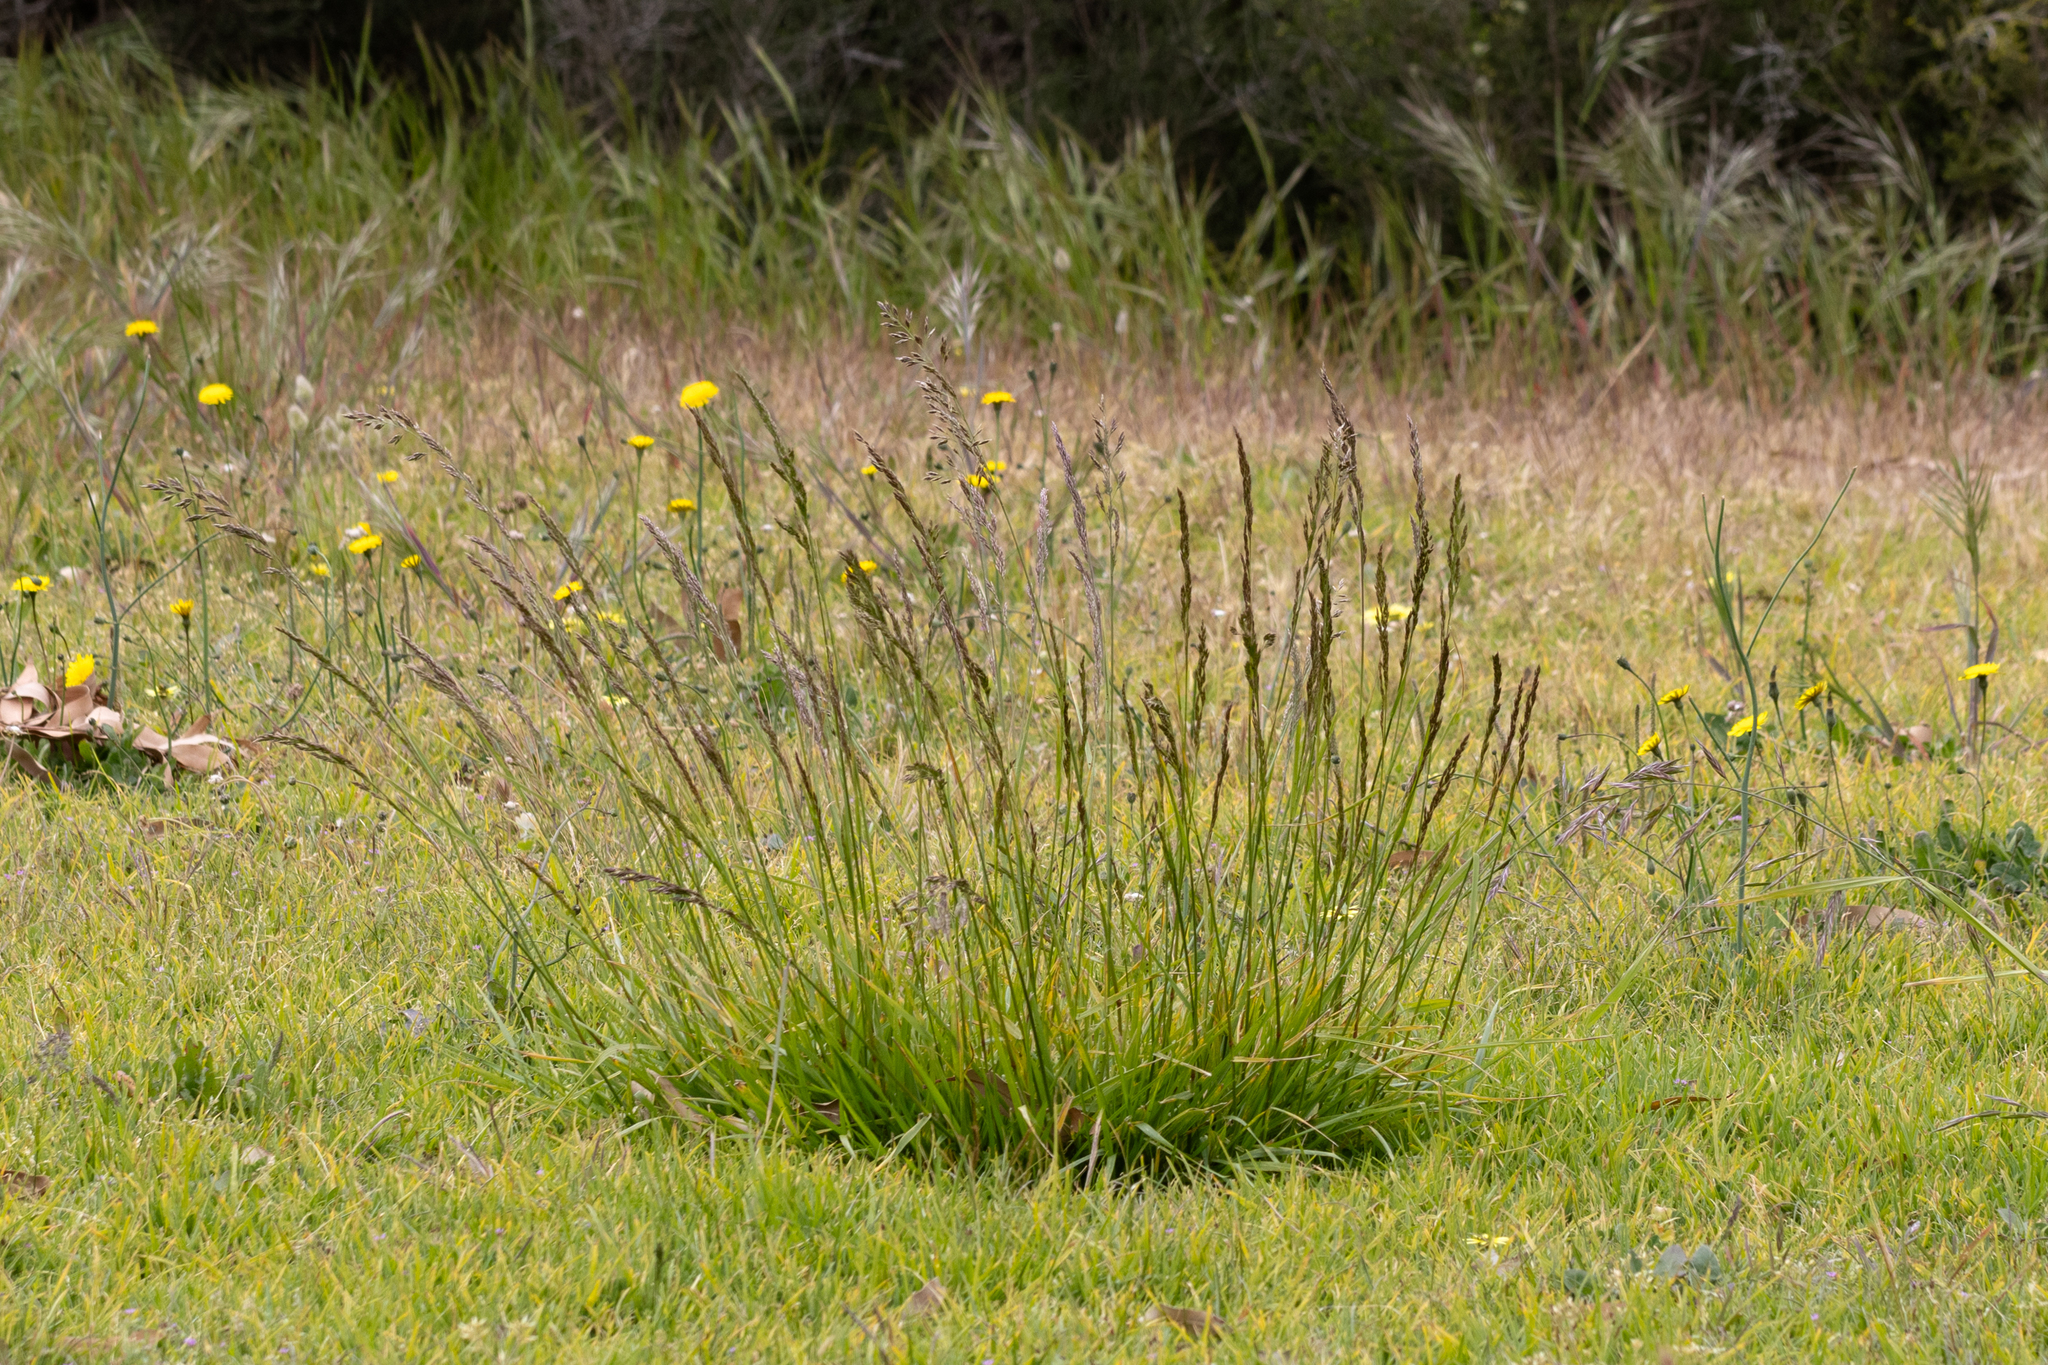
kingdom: Plantae
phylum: Tracheophyta
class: Liliopsida
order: Poales
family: Poaceae
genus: Lolium
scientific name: Lolium arundinaceum
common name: Reed fescue
